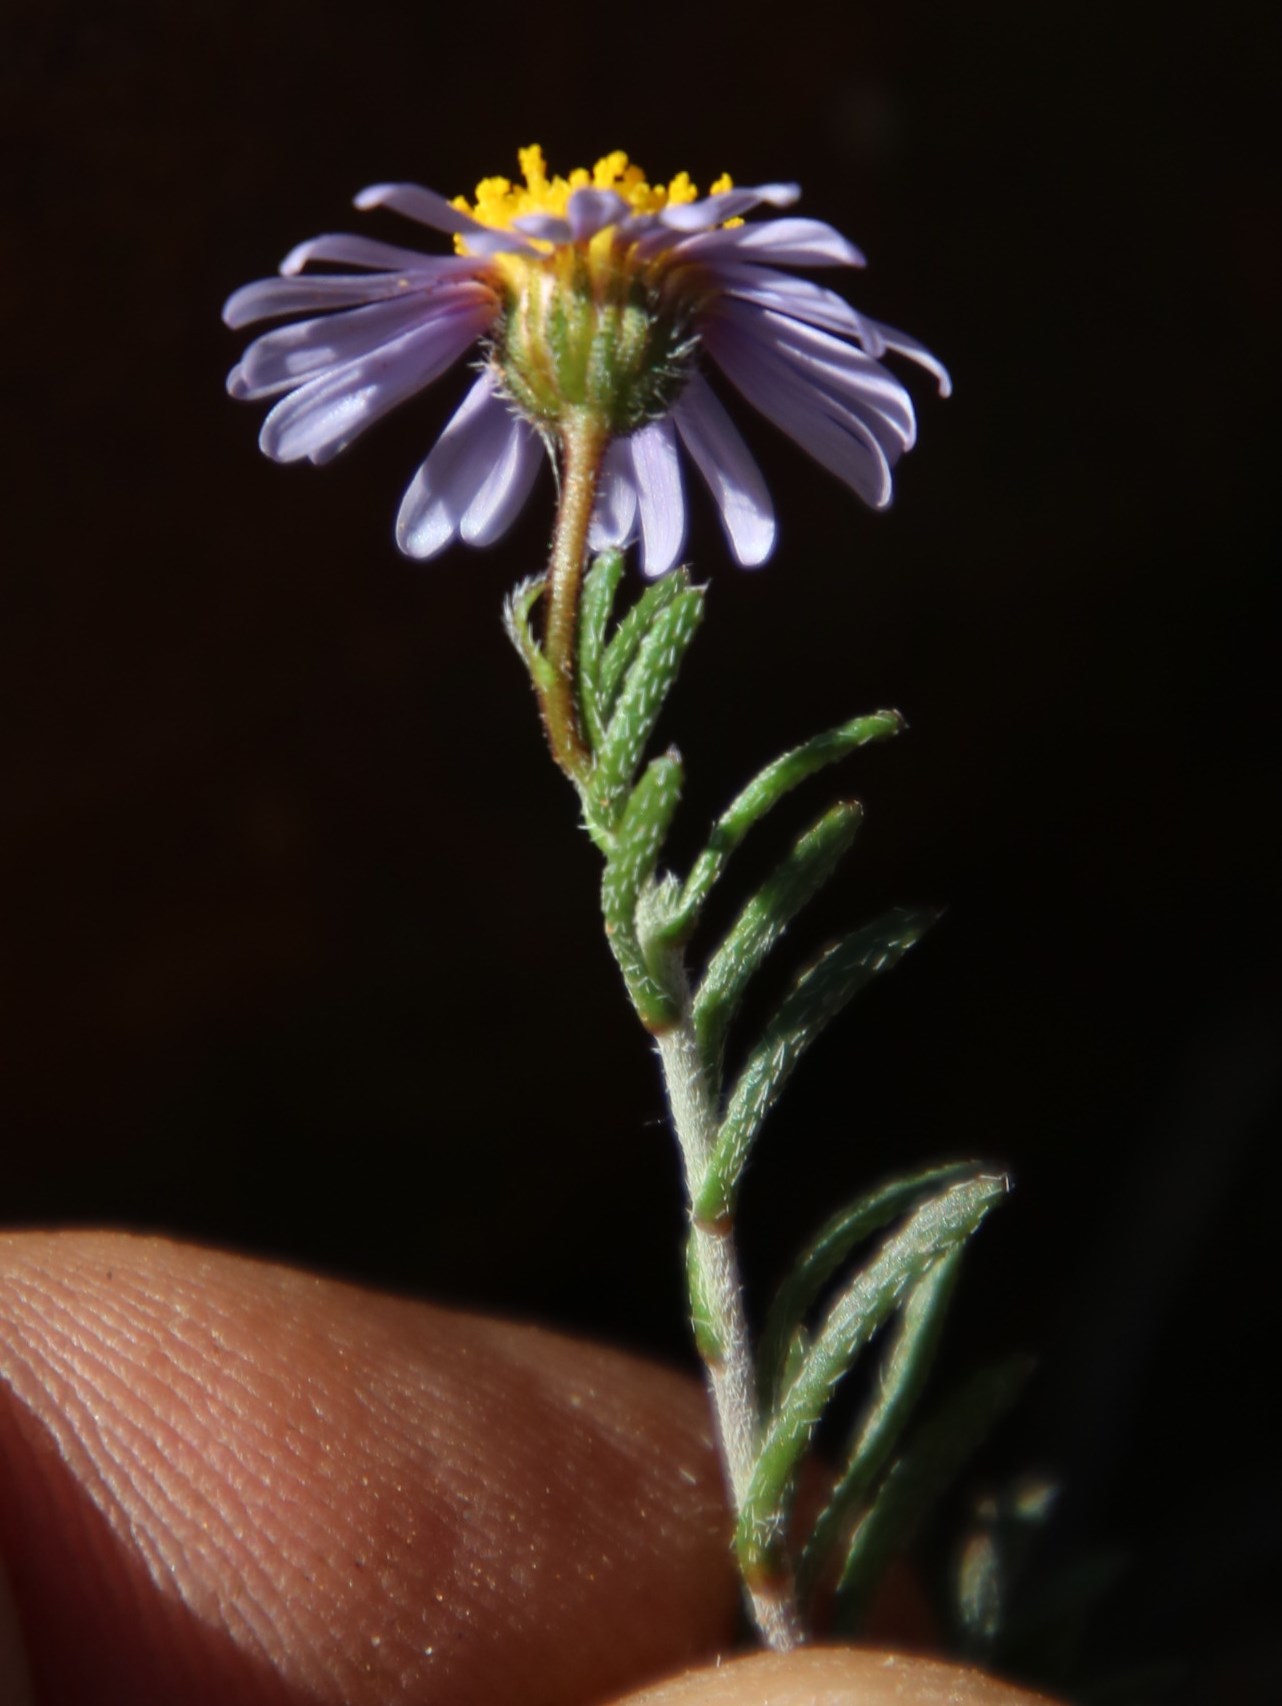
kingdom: Plantae
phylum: Tracheophyta
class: Magnoliopsida
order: Asterales
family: Asteraceae
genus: Felicia
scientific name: Felicia hirsuta
